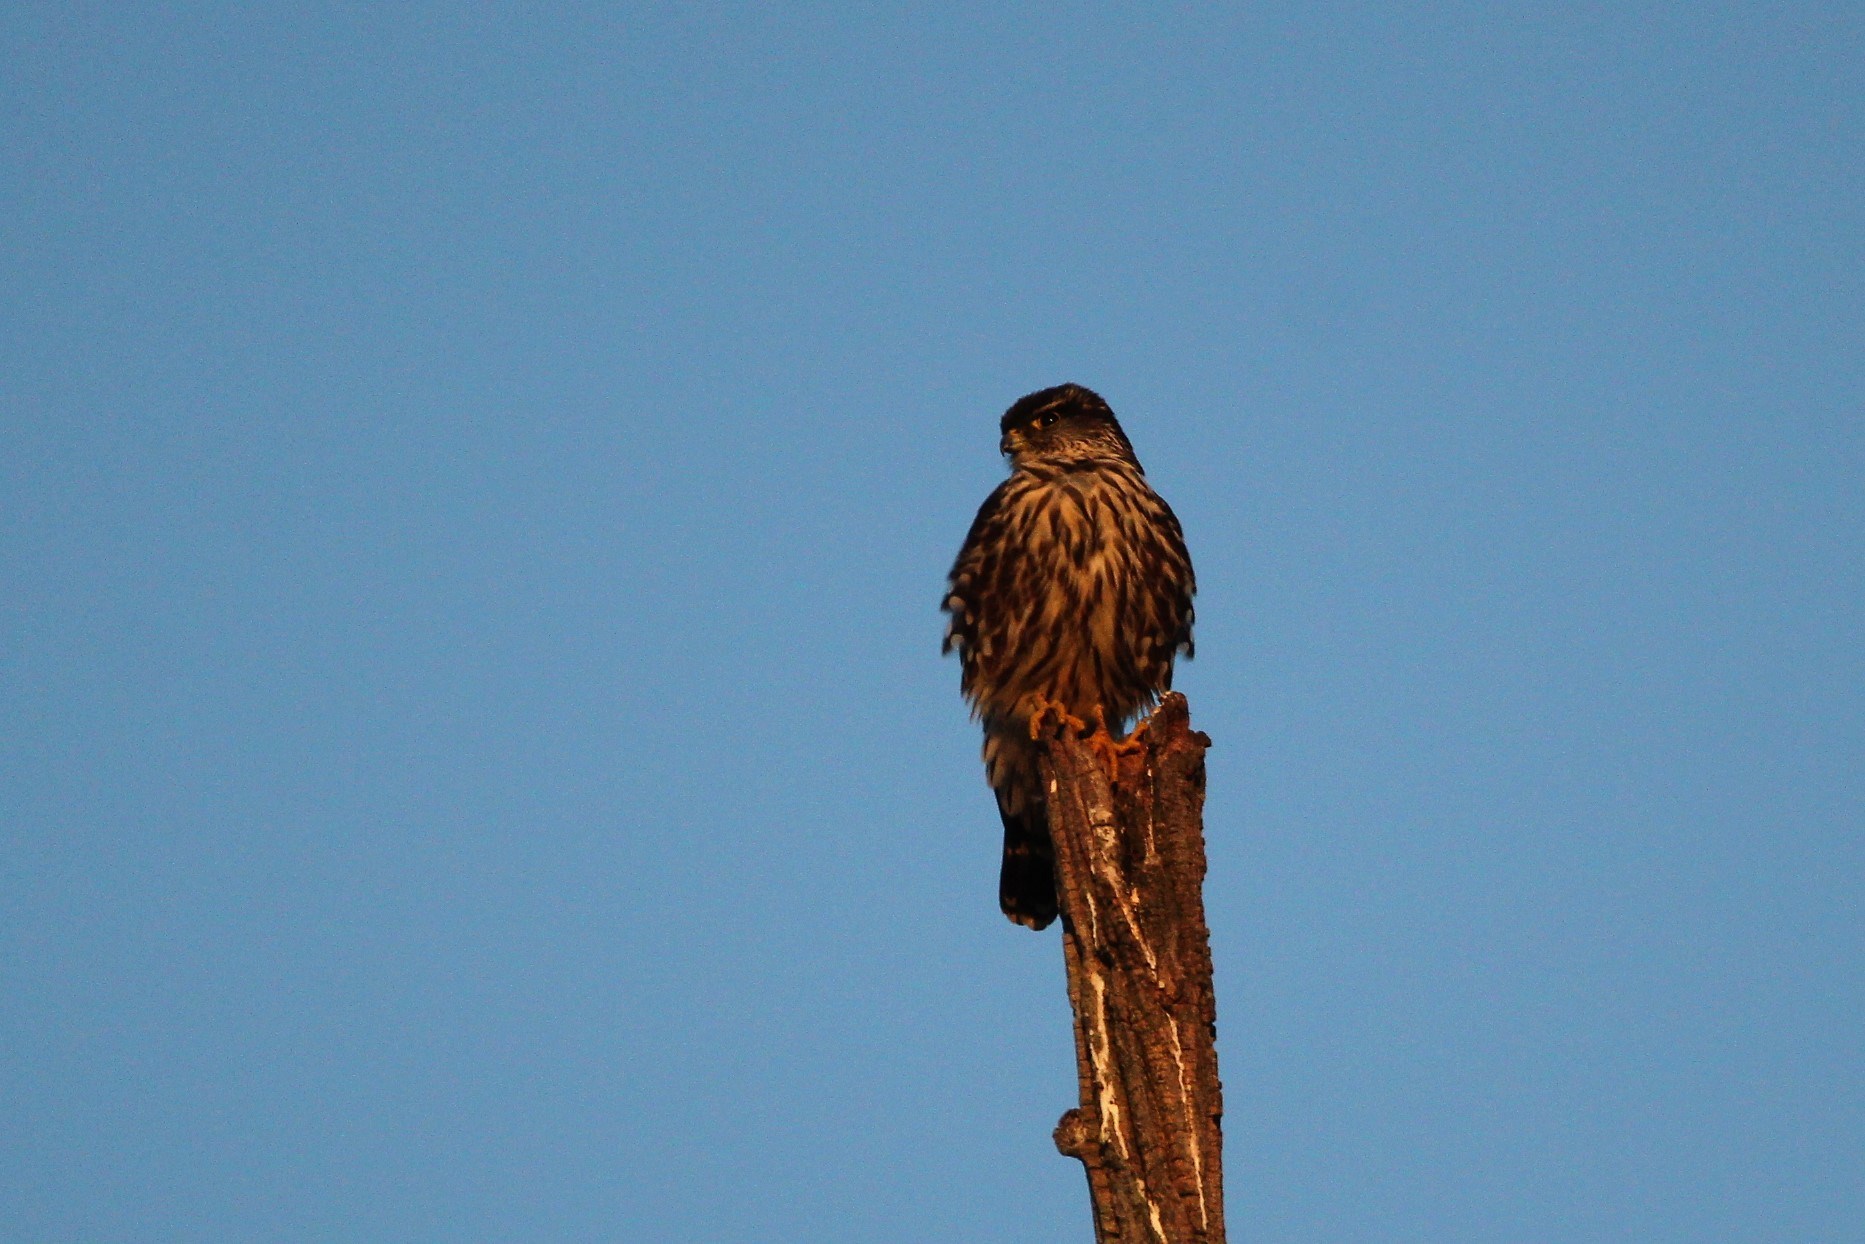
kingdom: Animalia
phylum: Chordata
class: Aves
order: Falconiformes
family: Falconidae
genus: Falco
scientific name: Falco columbarius
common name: Merlin
